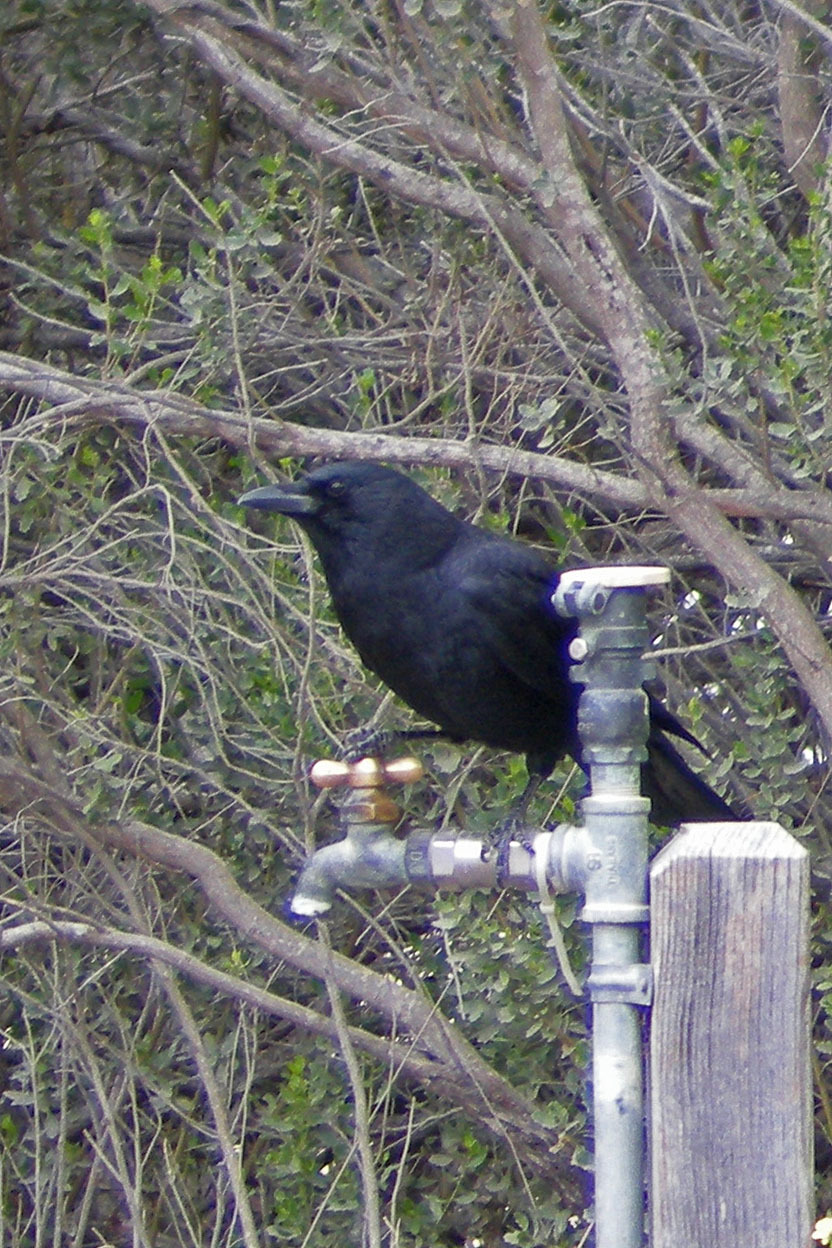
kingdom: Animalia
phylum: Chordata
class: Aves
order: Passeriformes
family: Corvidae
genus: Corvus
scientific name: Corvus brachyrhynchos
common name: American crow
